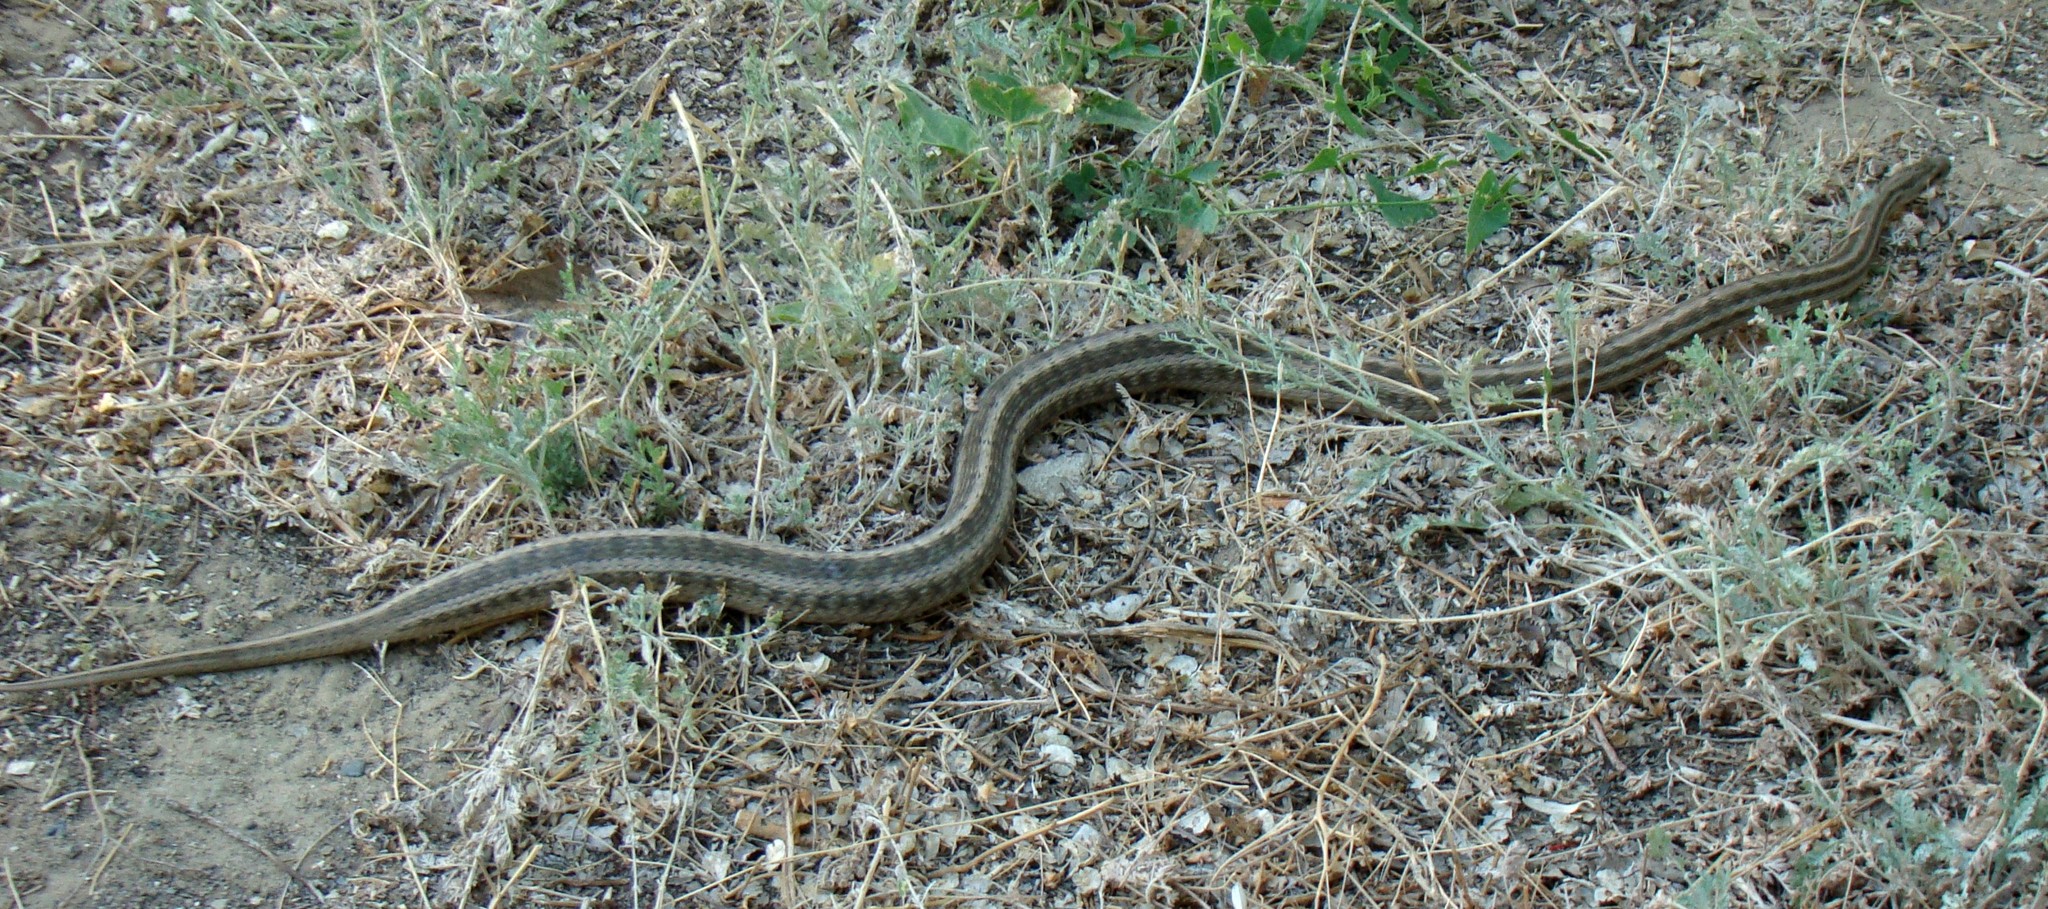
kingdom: Animalia
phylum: Chordata
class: Squamata
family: Colubridae
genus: Elaphe
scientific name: Elaphe dione
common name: Dione ratsnake
